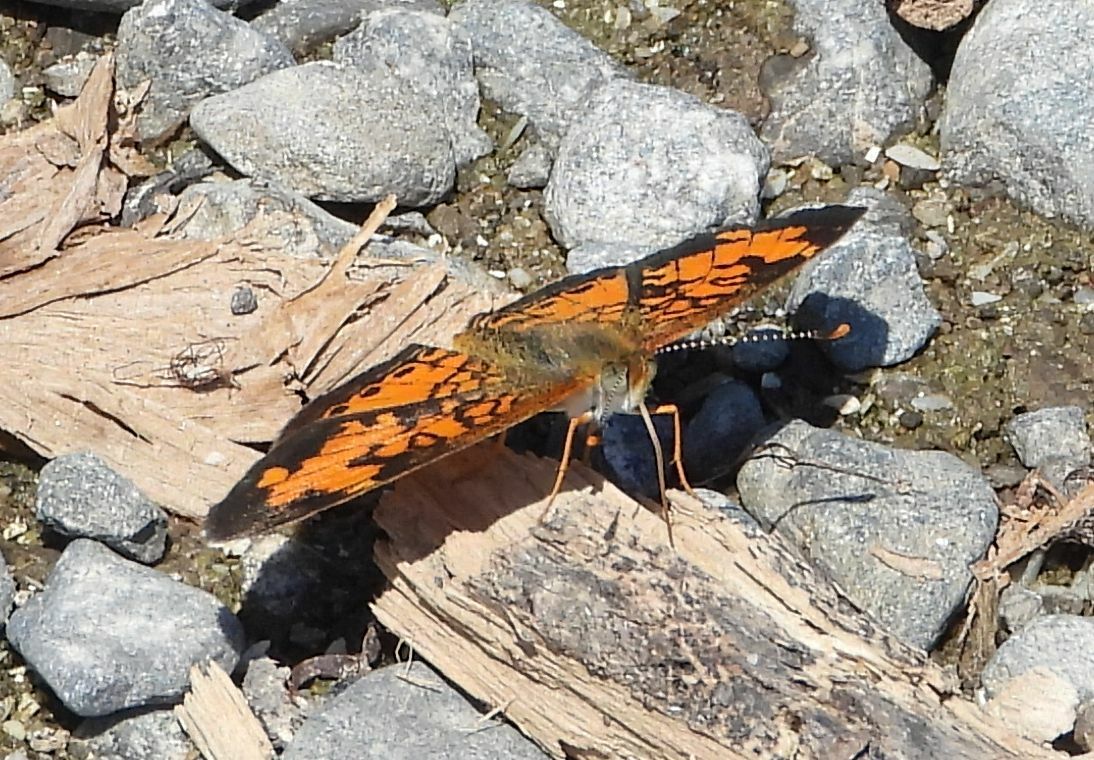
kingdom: Animalia
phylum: Arthropoda
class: Insecta
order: Lepidoptera
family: Nymphalidae
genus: Phyciodes
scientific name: Phyciodes tharos
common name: Pearl crescent
